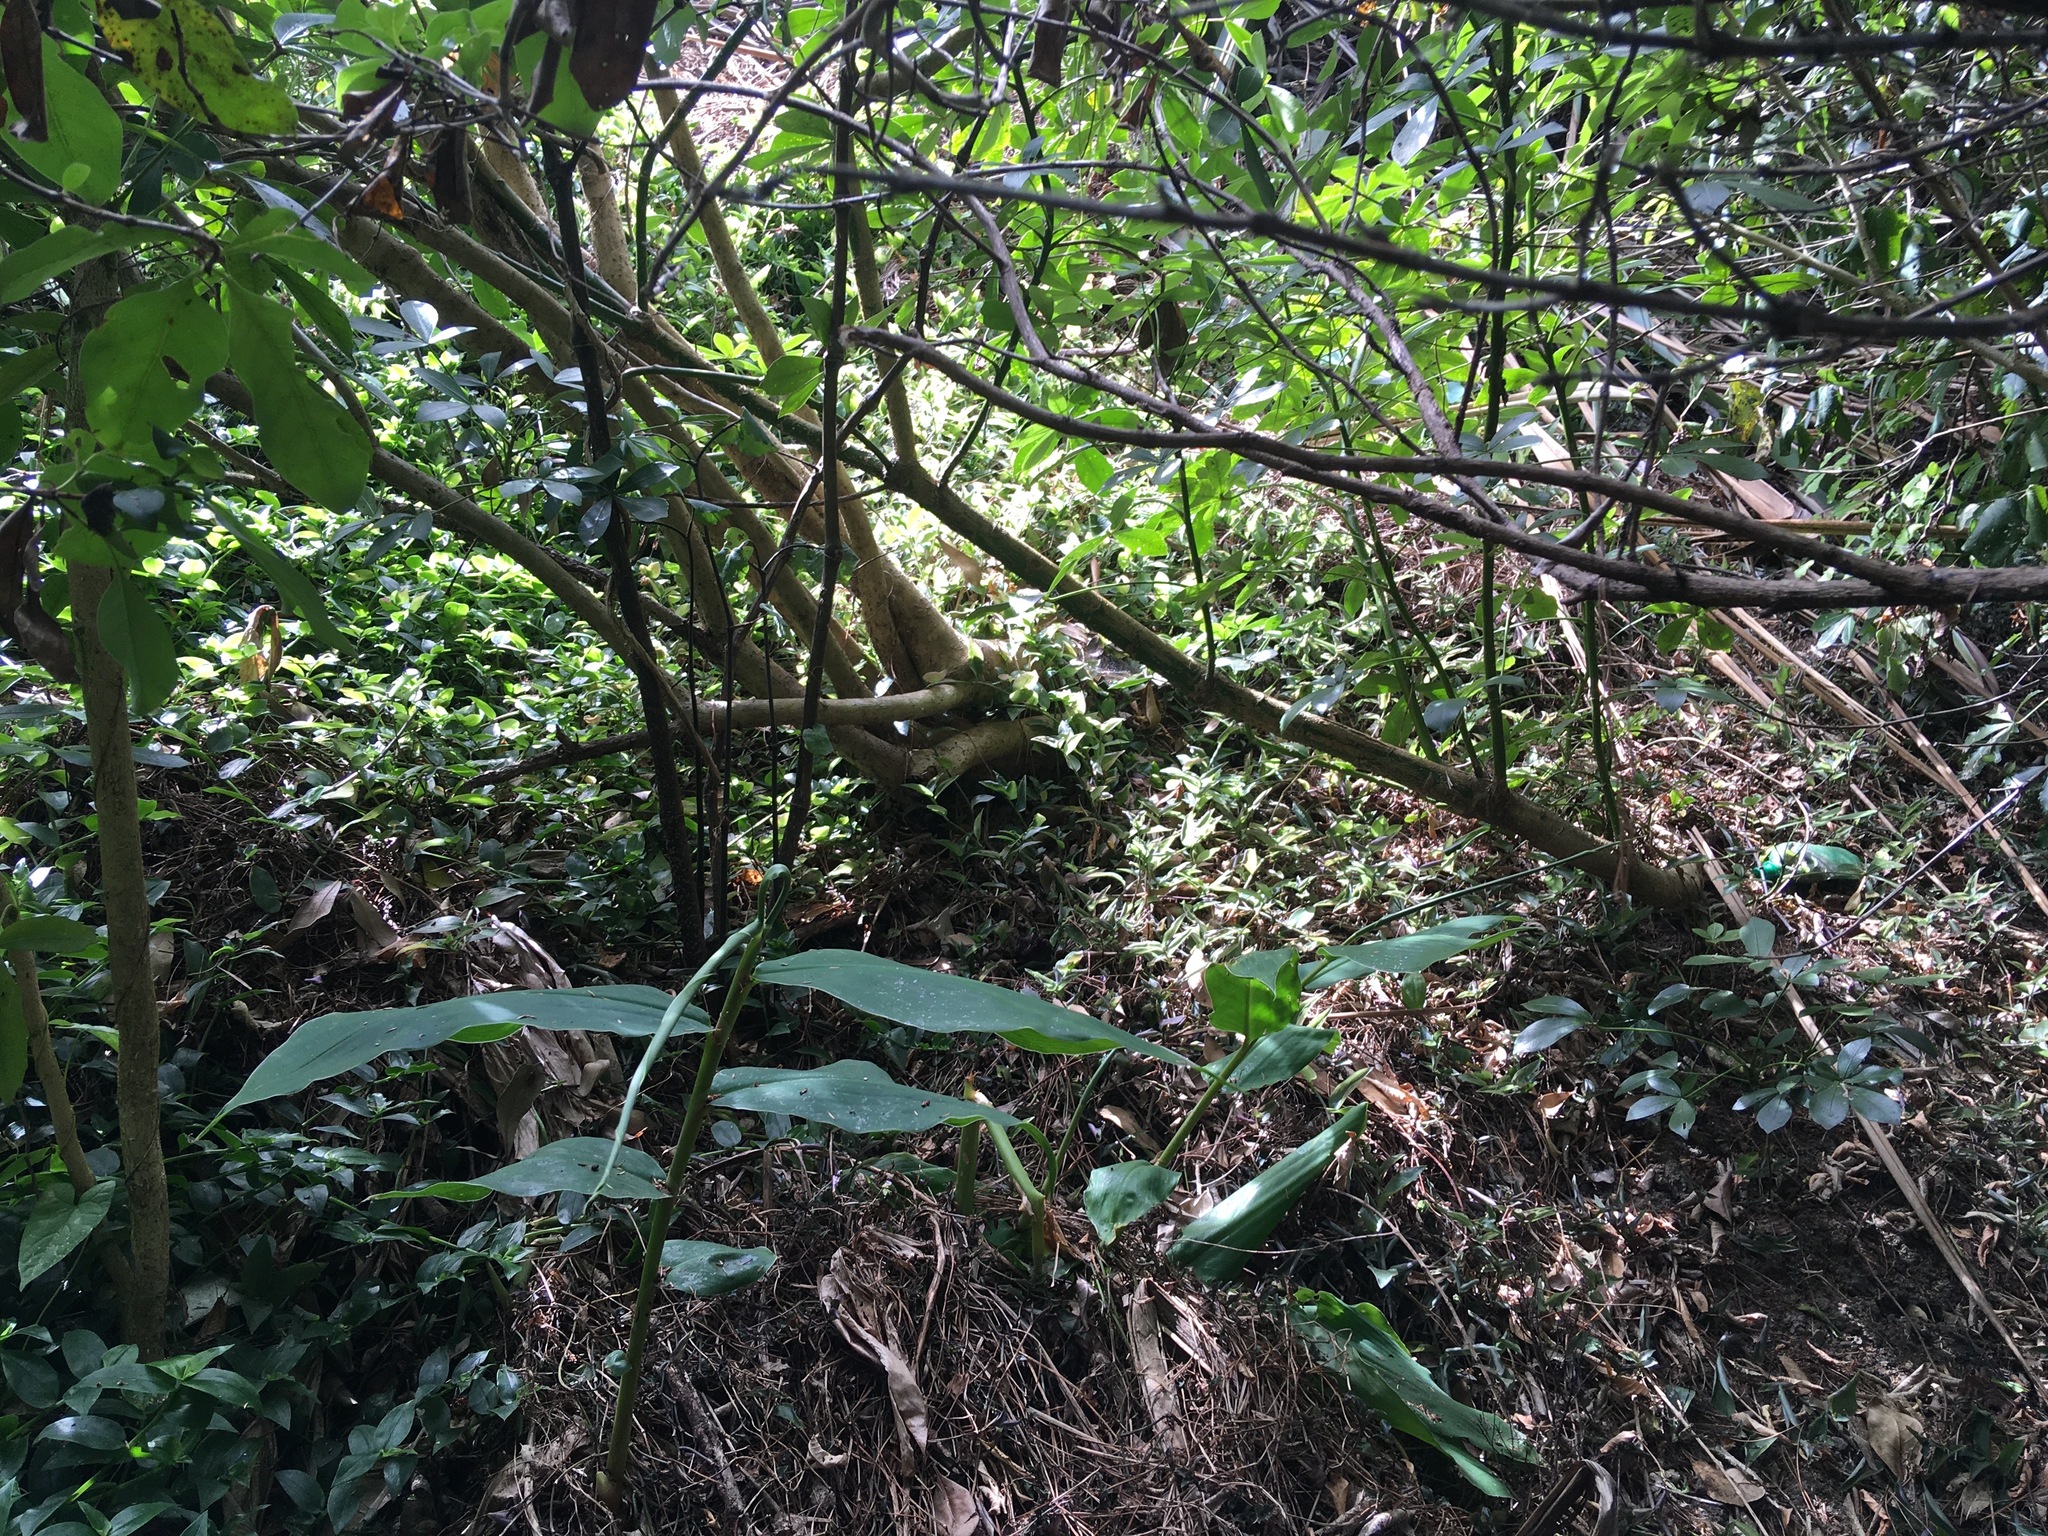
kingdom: Plantae
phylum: Tracheophyta
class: Liliopsida
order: Zingiberales
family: Zingiberaceae
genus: Hedychium
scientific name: Hedychium gardnerianum
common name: Himalayan ginger
